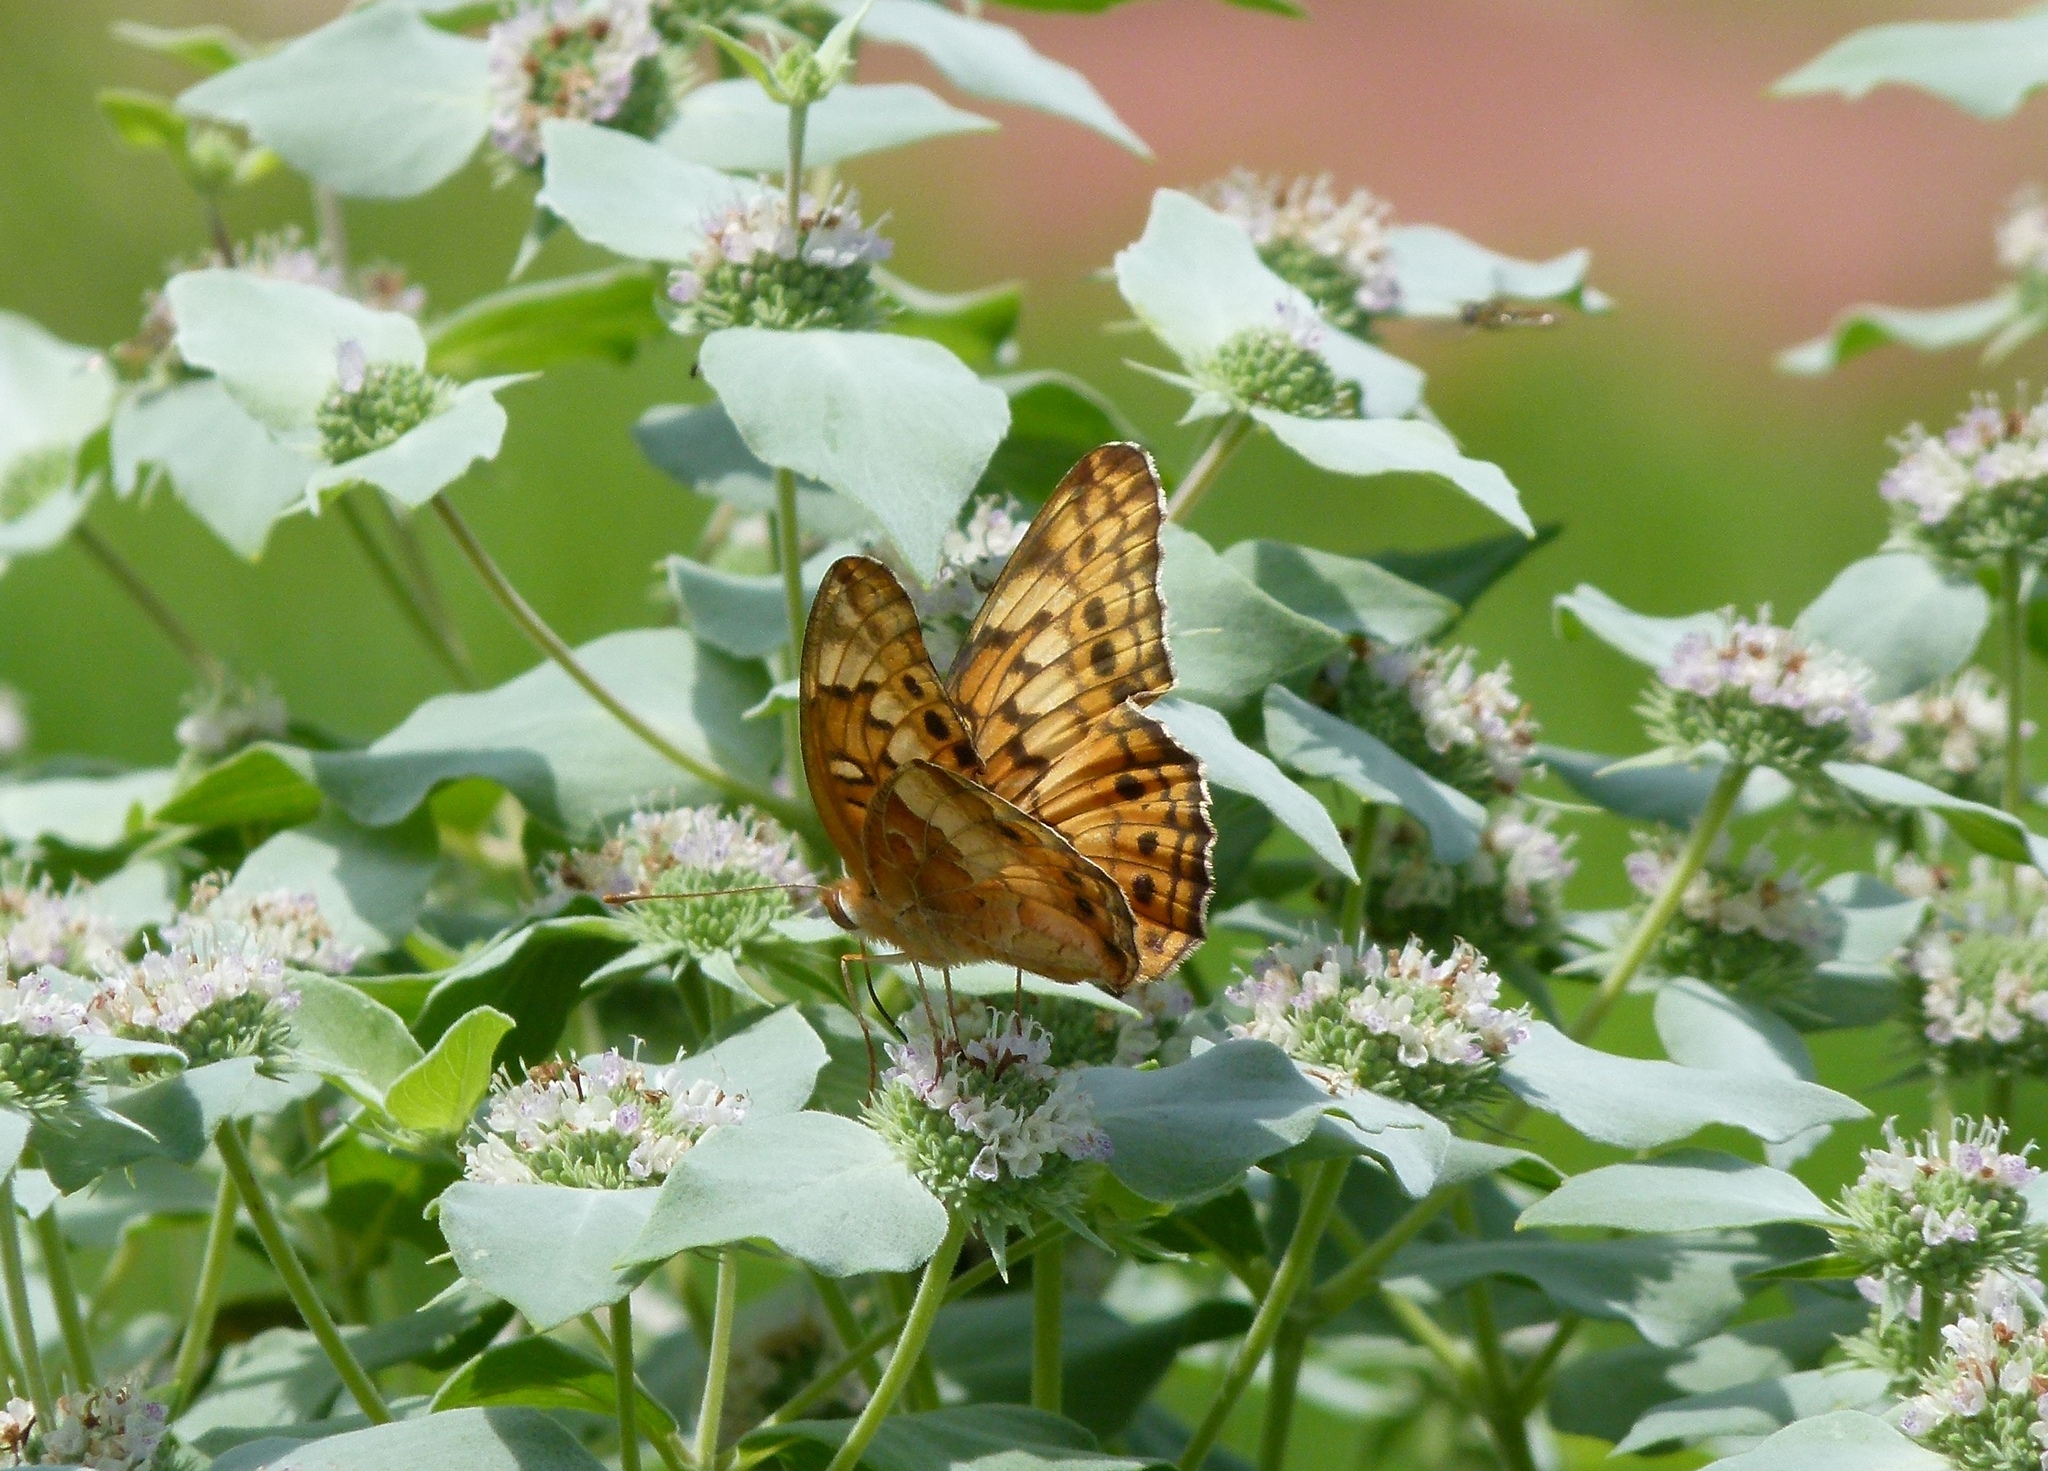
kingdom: Animalia
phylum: Arthropoda
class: Insecta
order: Lepidoptera
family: Nymphalidae
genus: Euptoieta
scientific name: Euptoieta claudia
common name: Variegated fritillary
